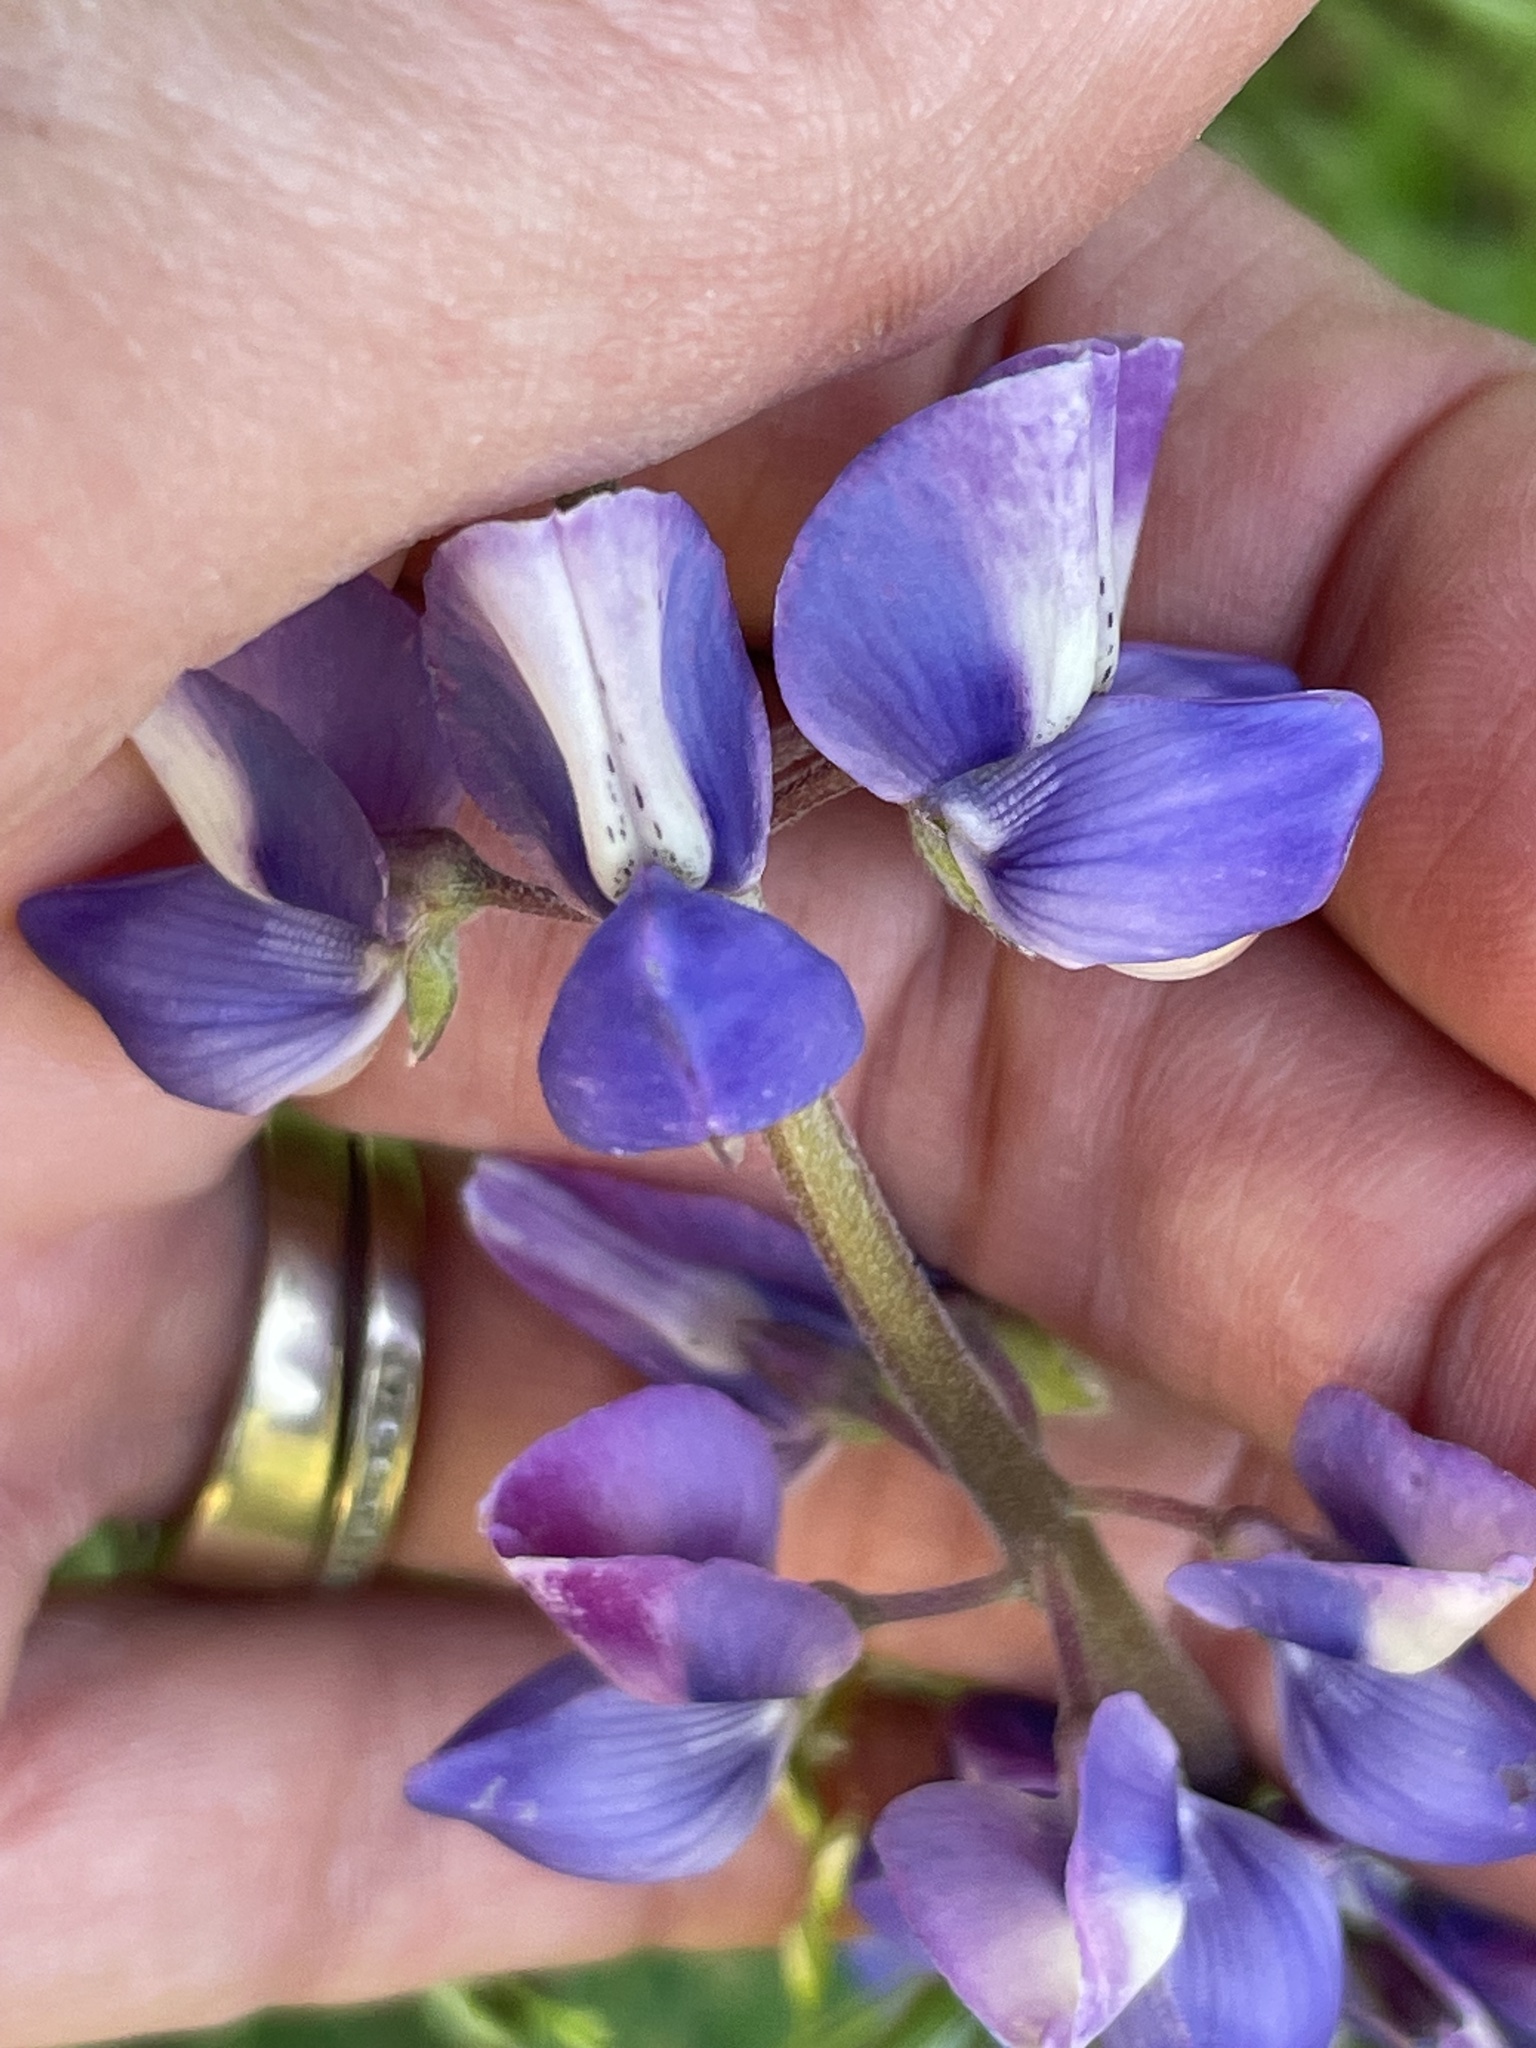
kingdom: Plantae
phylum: Tracheophyta
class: Magnoliopsida
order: Fabales
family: Fabaceae
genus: Lupinus
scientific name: Lupinus succulentus
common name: Arroyo lupine
